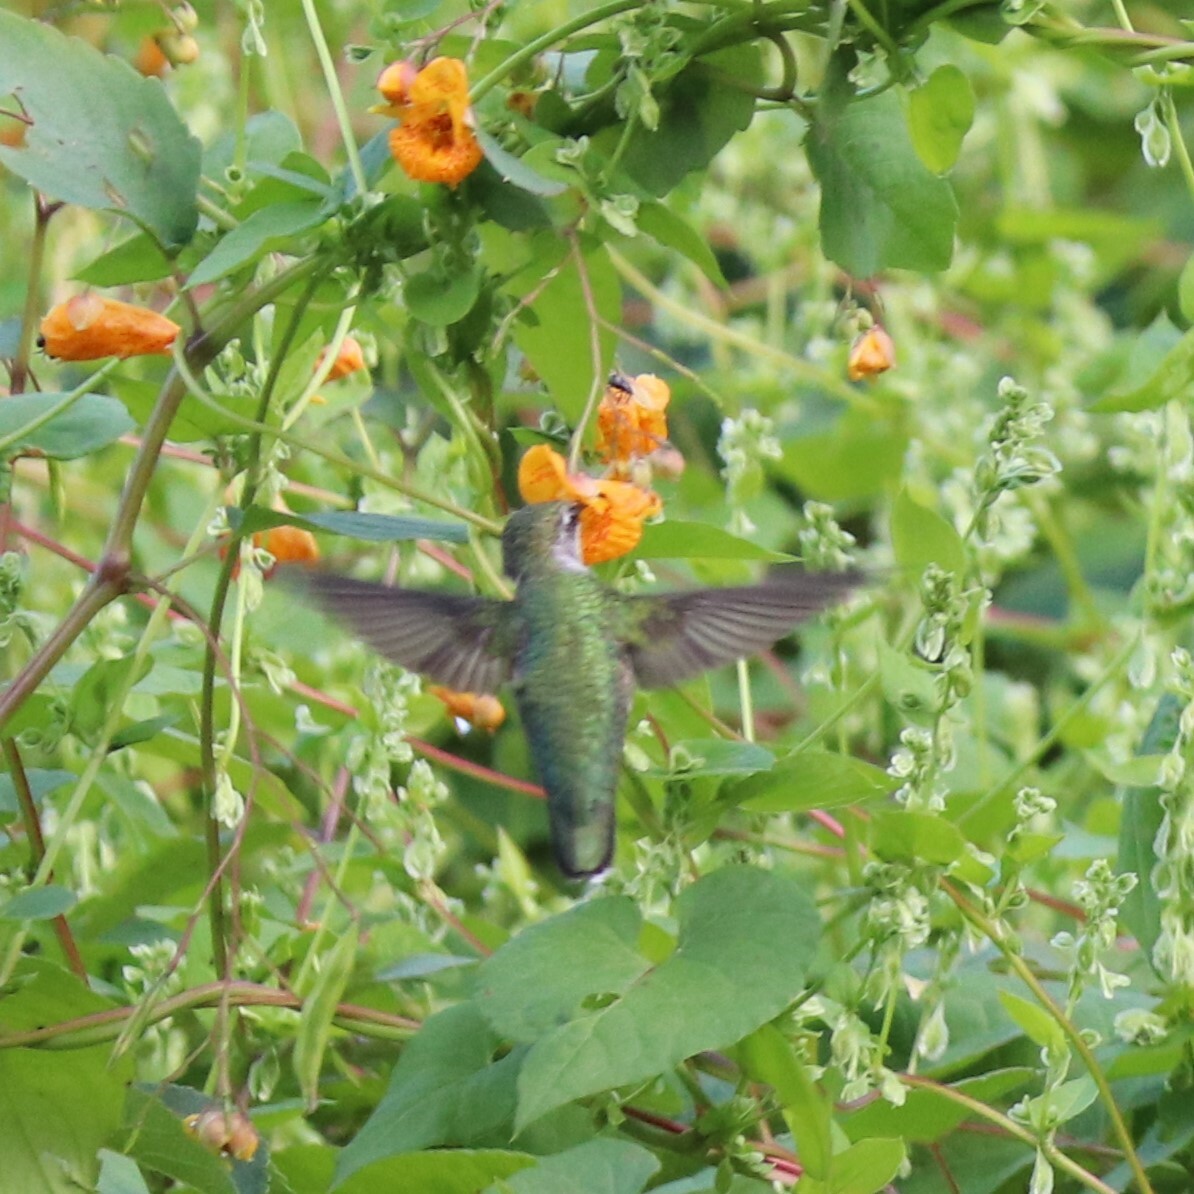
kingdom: Animalia
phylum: Chordata
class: Aves
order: Apodiformes
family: Trochilidae
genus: Archilochus
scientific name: Archilochus colubris
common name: Ruby-throated hummingbird
